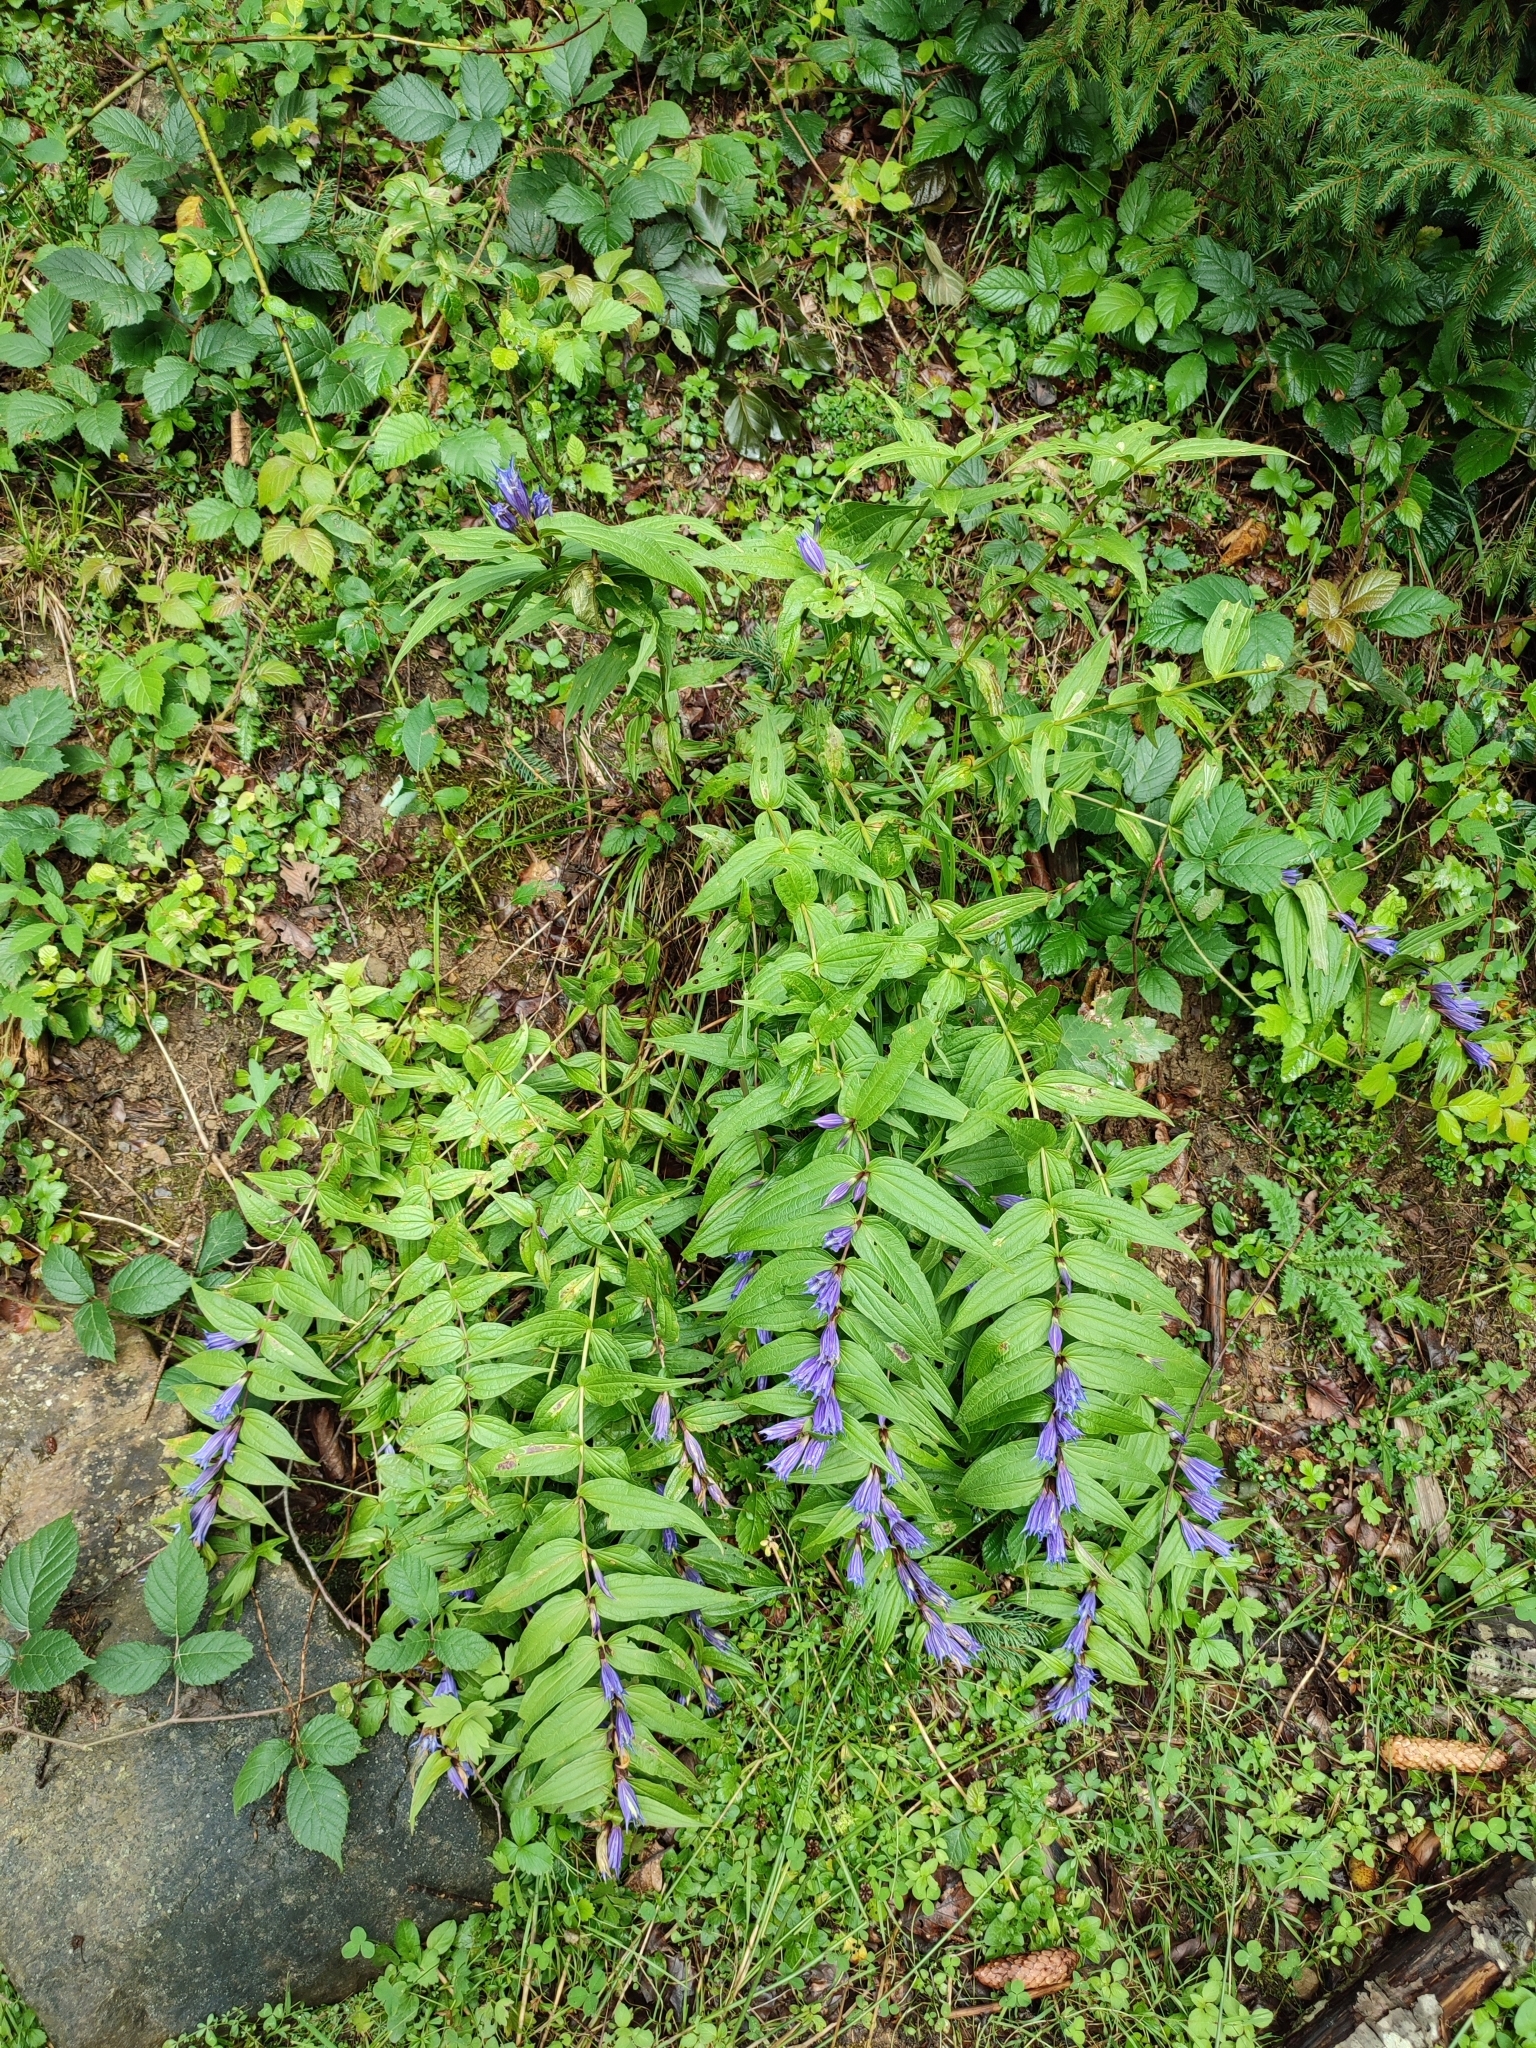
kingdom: Plantae
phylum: Tracheophyta
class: Magnoliopsida
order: Gentianales
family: Gentianaceae
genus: Gentiana
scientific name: Gentiana asclepiadea
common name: Willow gentian
